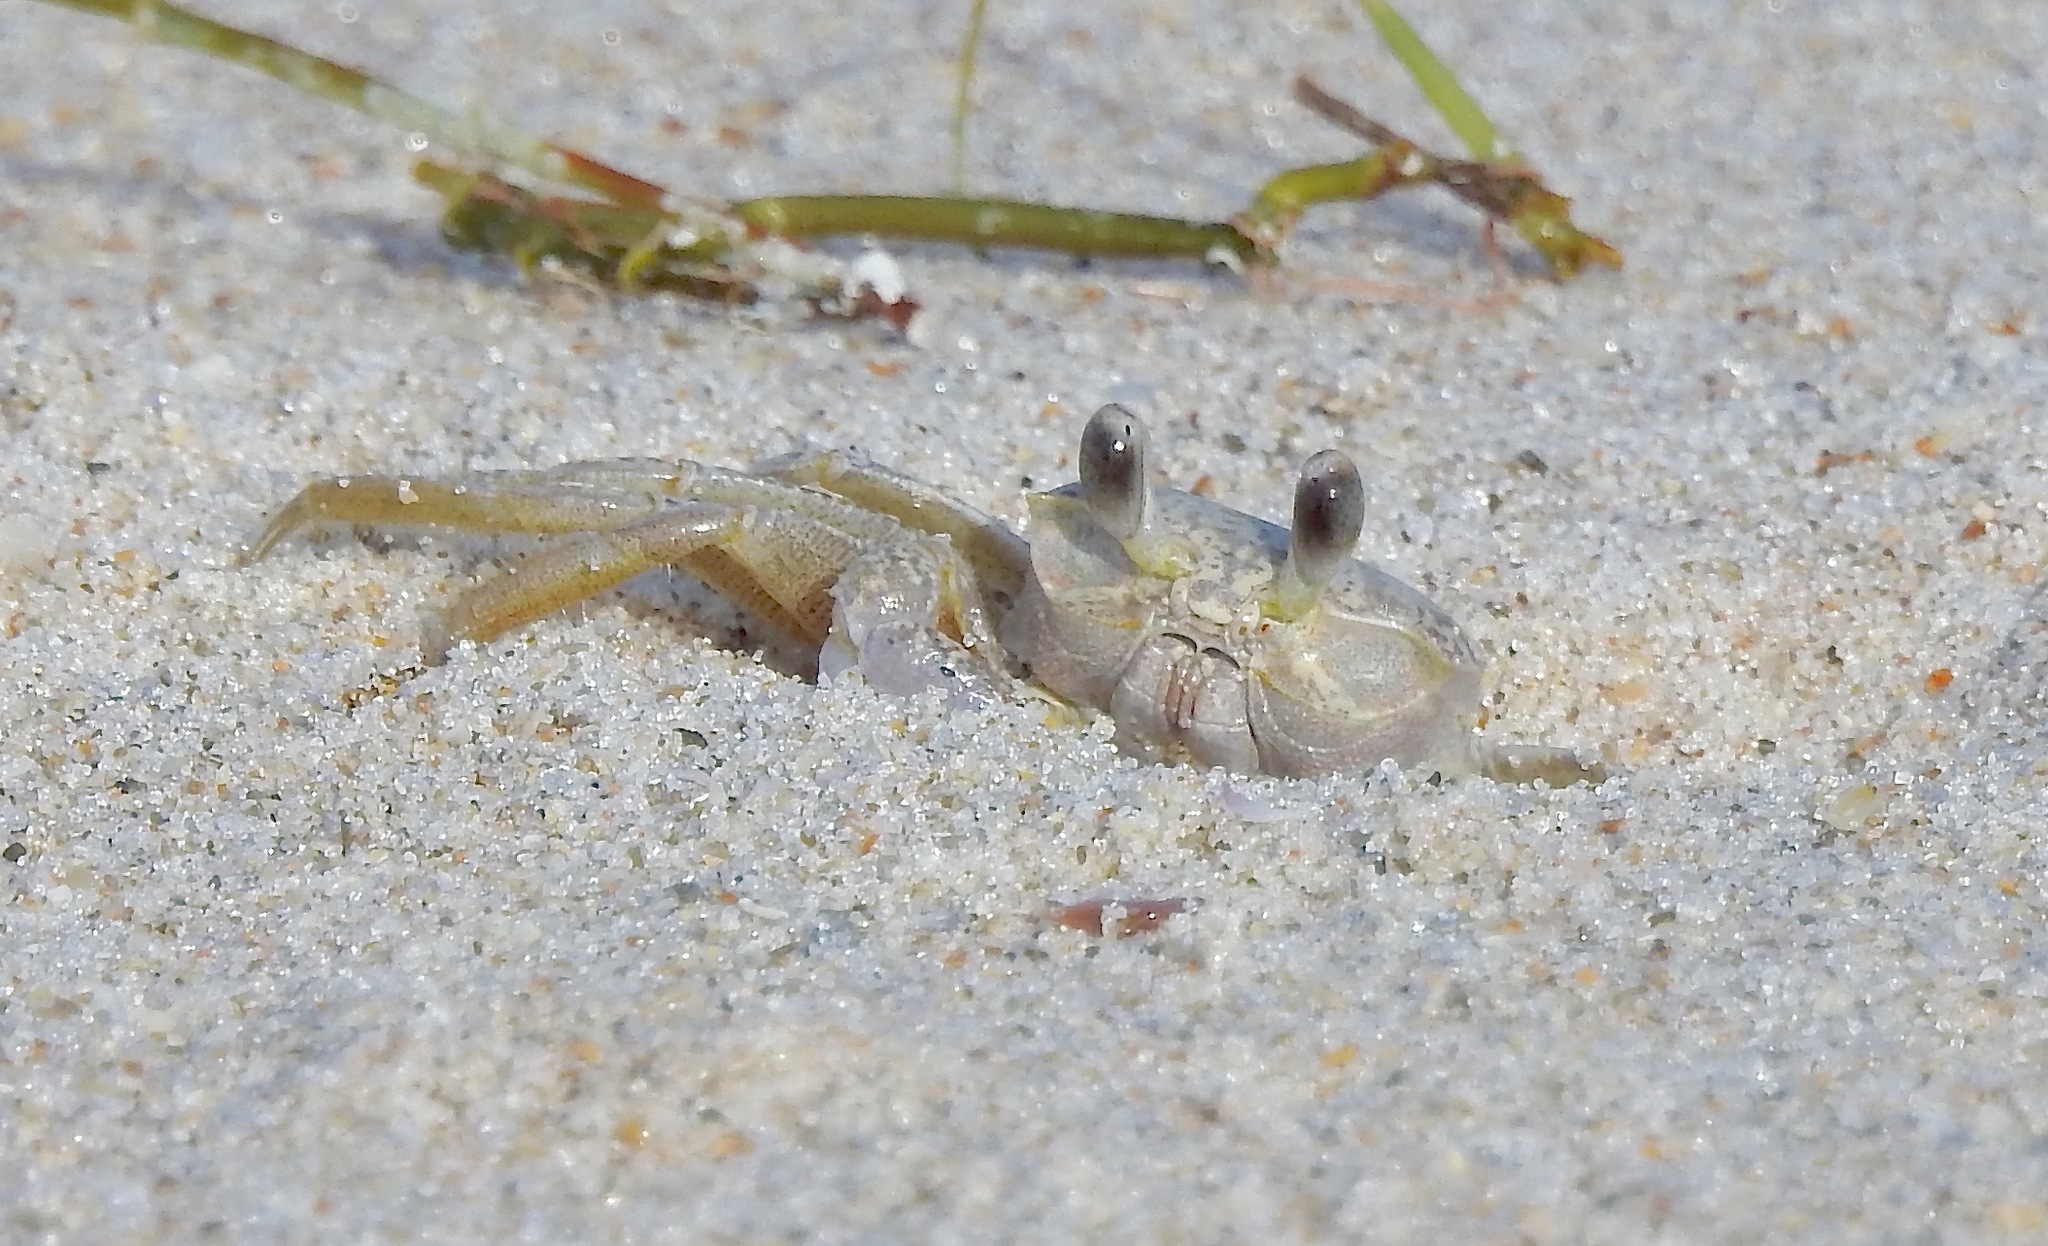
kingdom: Animalia
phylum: Arthropoda
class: Malacostraca
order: Decapoda
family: Ocypodidae
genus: Ocypode
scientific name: Ocypode quadrata
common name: Ghost crab
